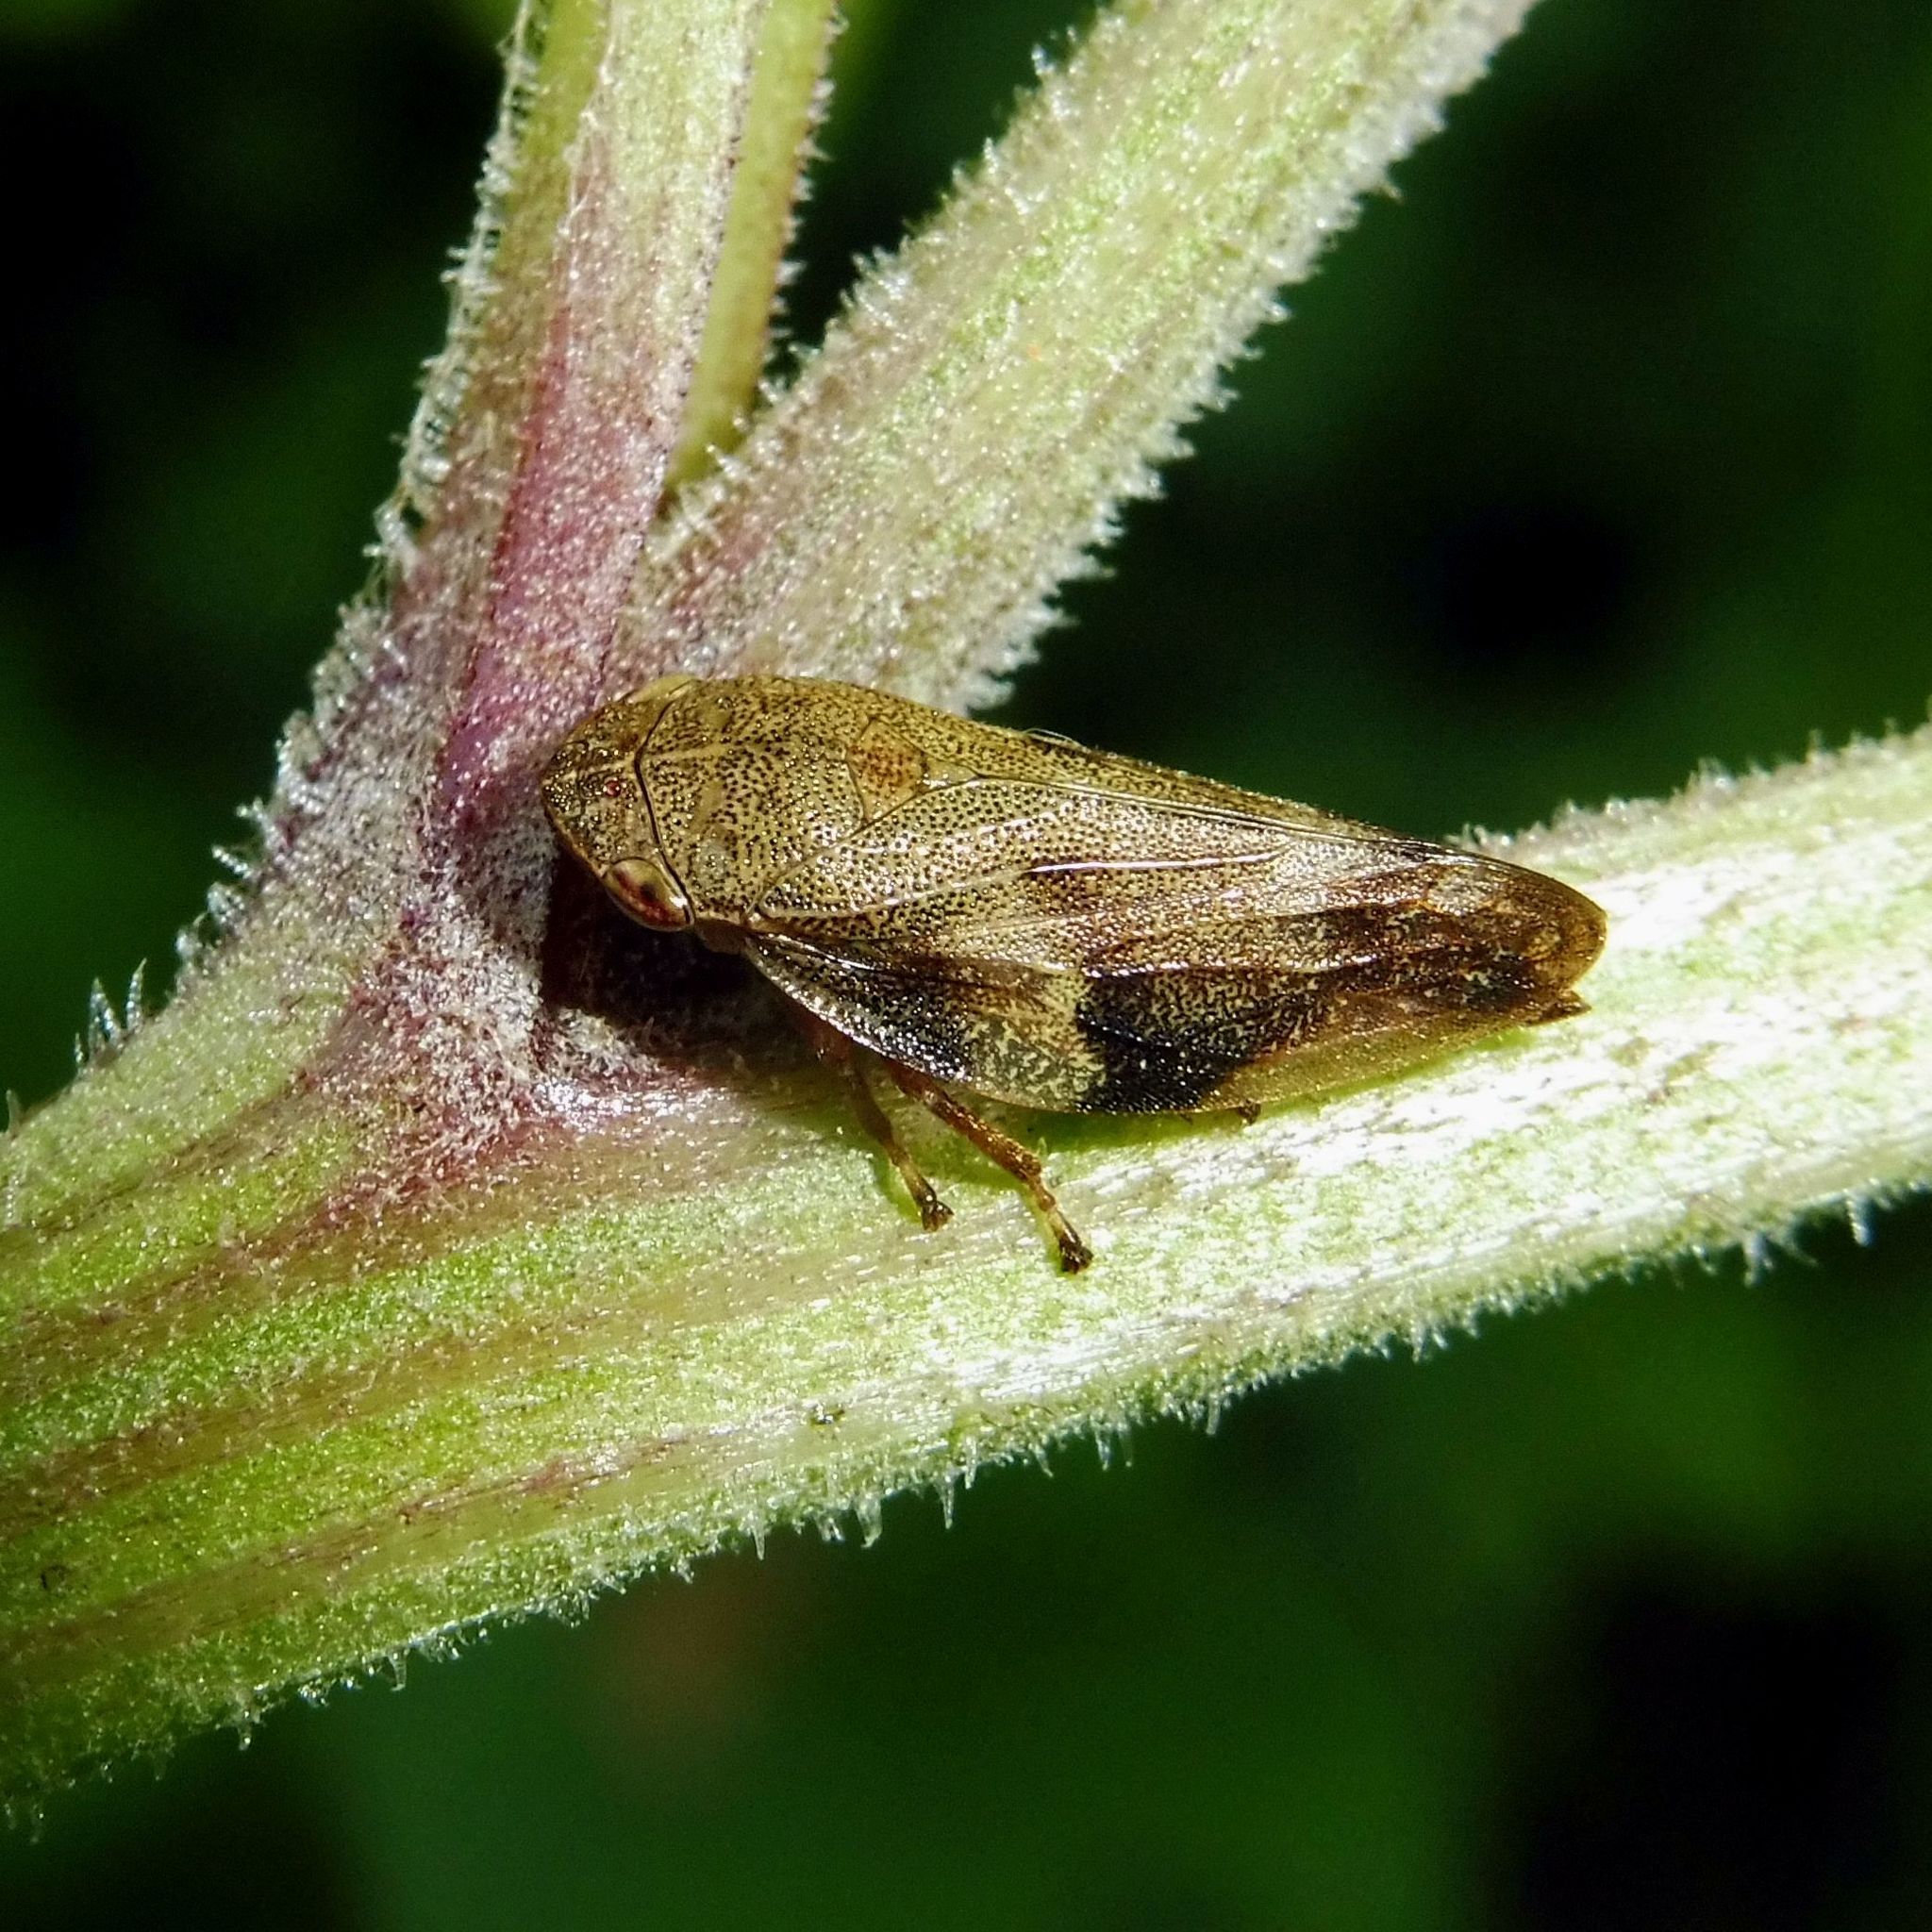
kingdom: Animalia
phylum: Arthropoda
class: Insecta
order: Hemiptera
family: Aphrophoridae
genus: Aphrophora
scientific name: Aphrophora alni
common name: European alder spittlebug
